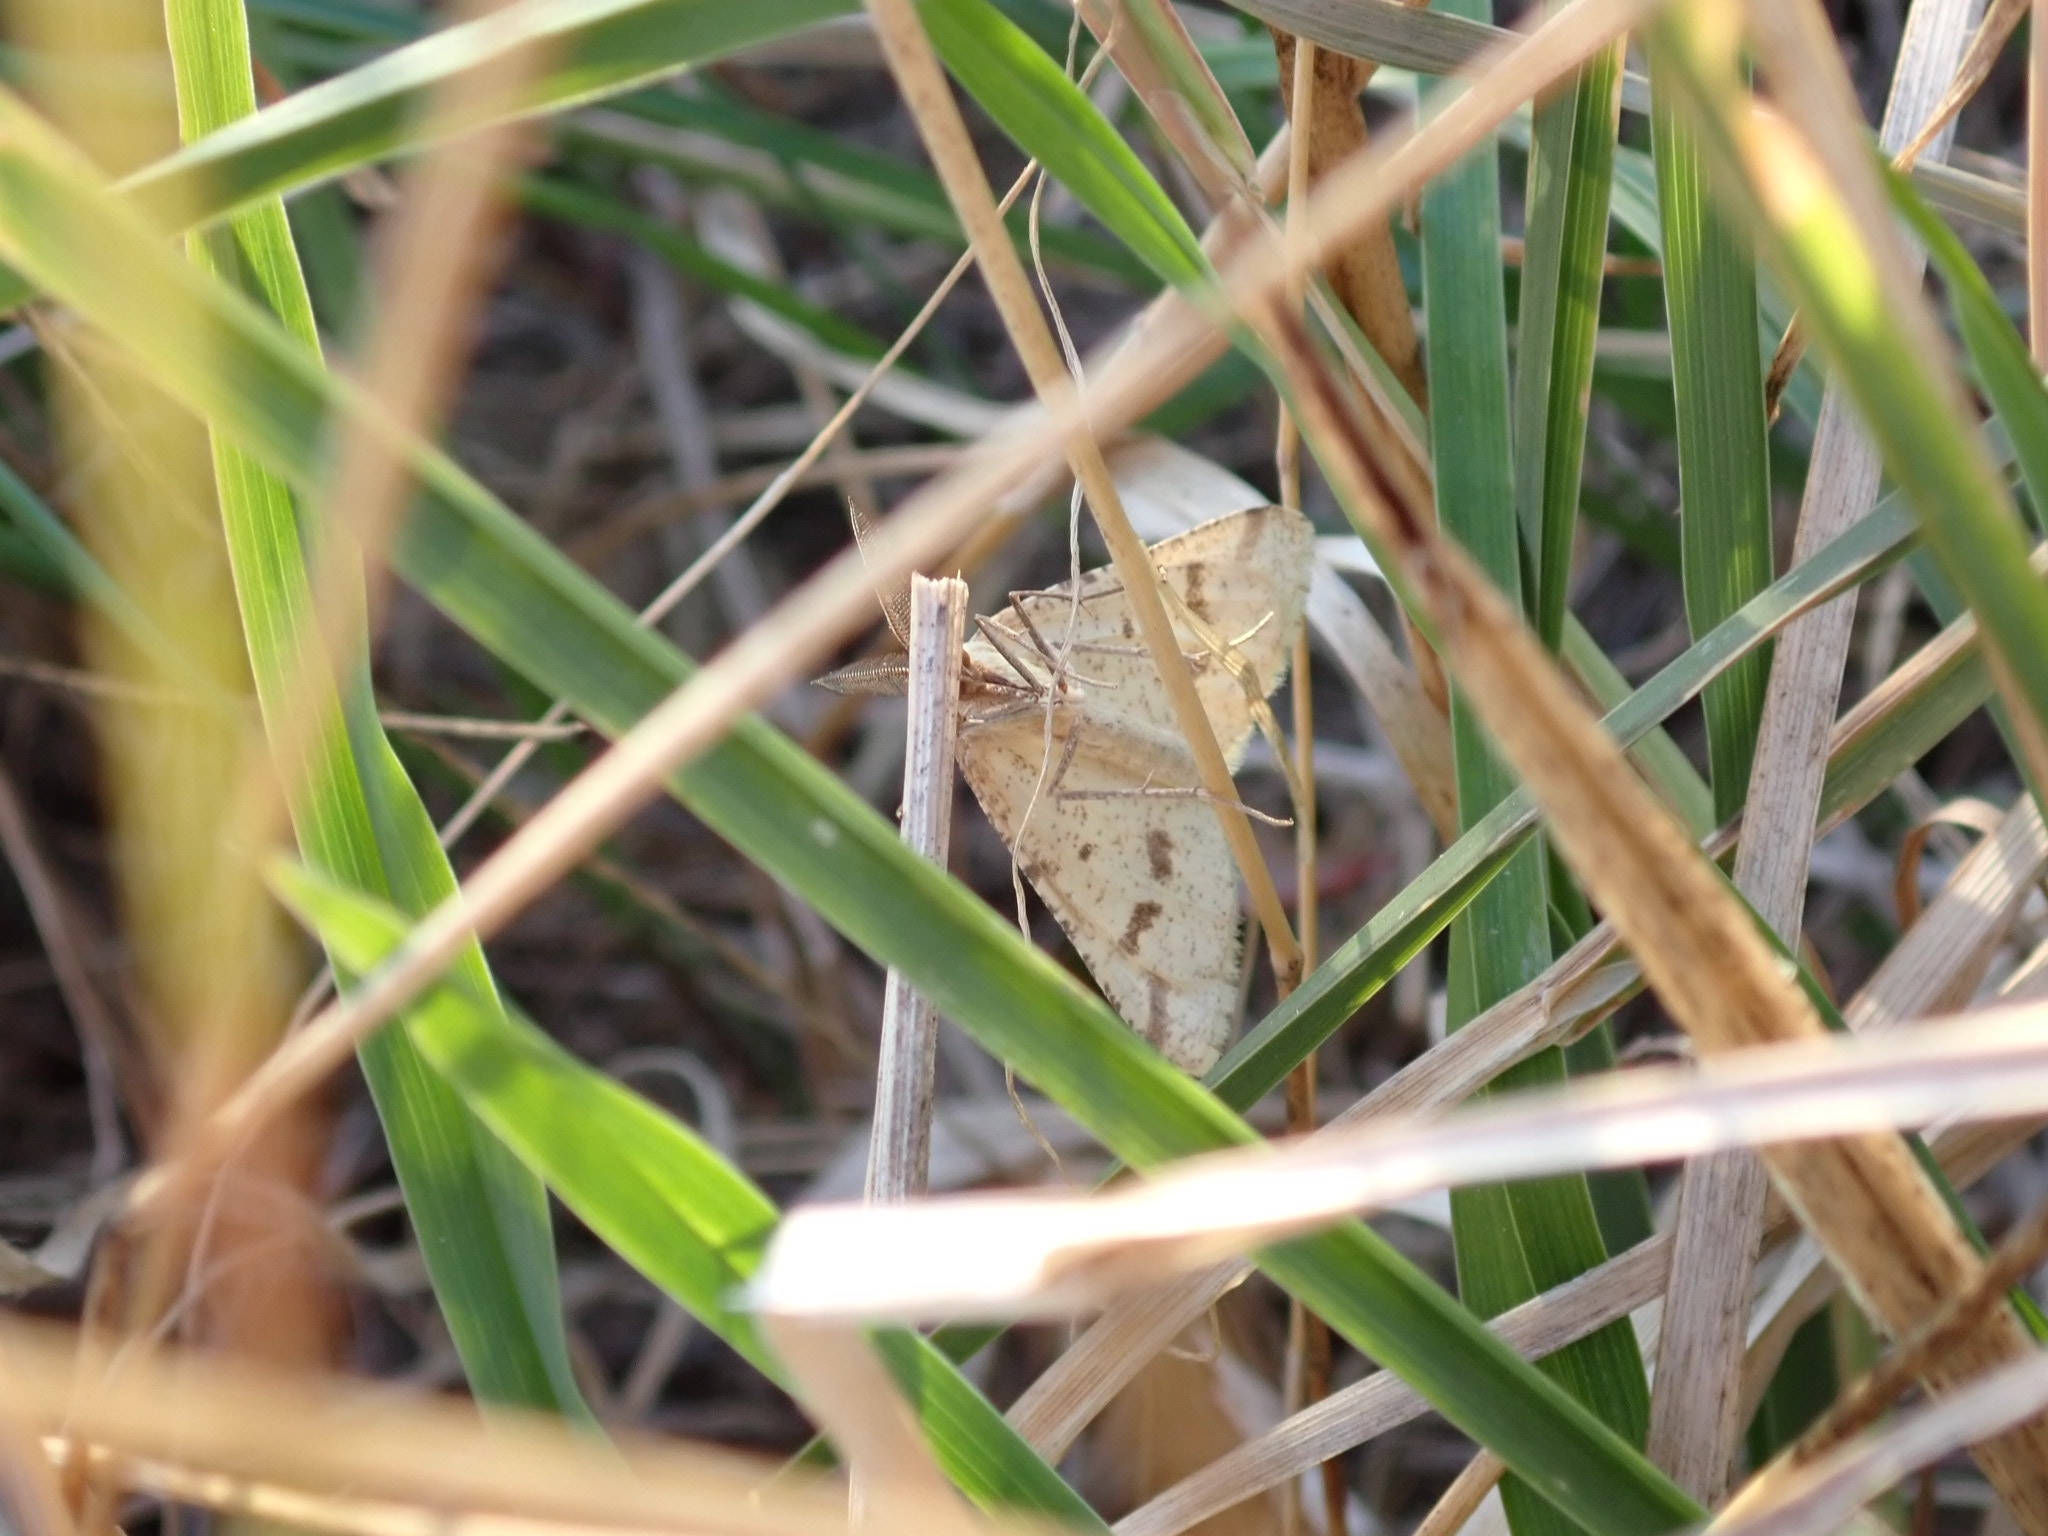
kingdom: Animalia
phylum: Arthropoda
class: Insecta
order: Lepidoptera
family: Geometridae
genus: Aspitates
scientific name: Aspitates ochrearia
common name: Yellow belle
